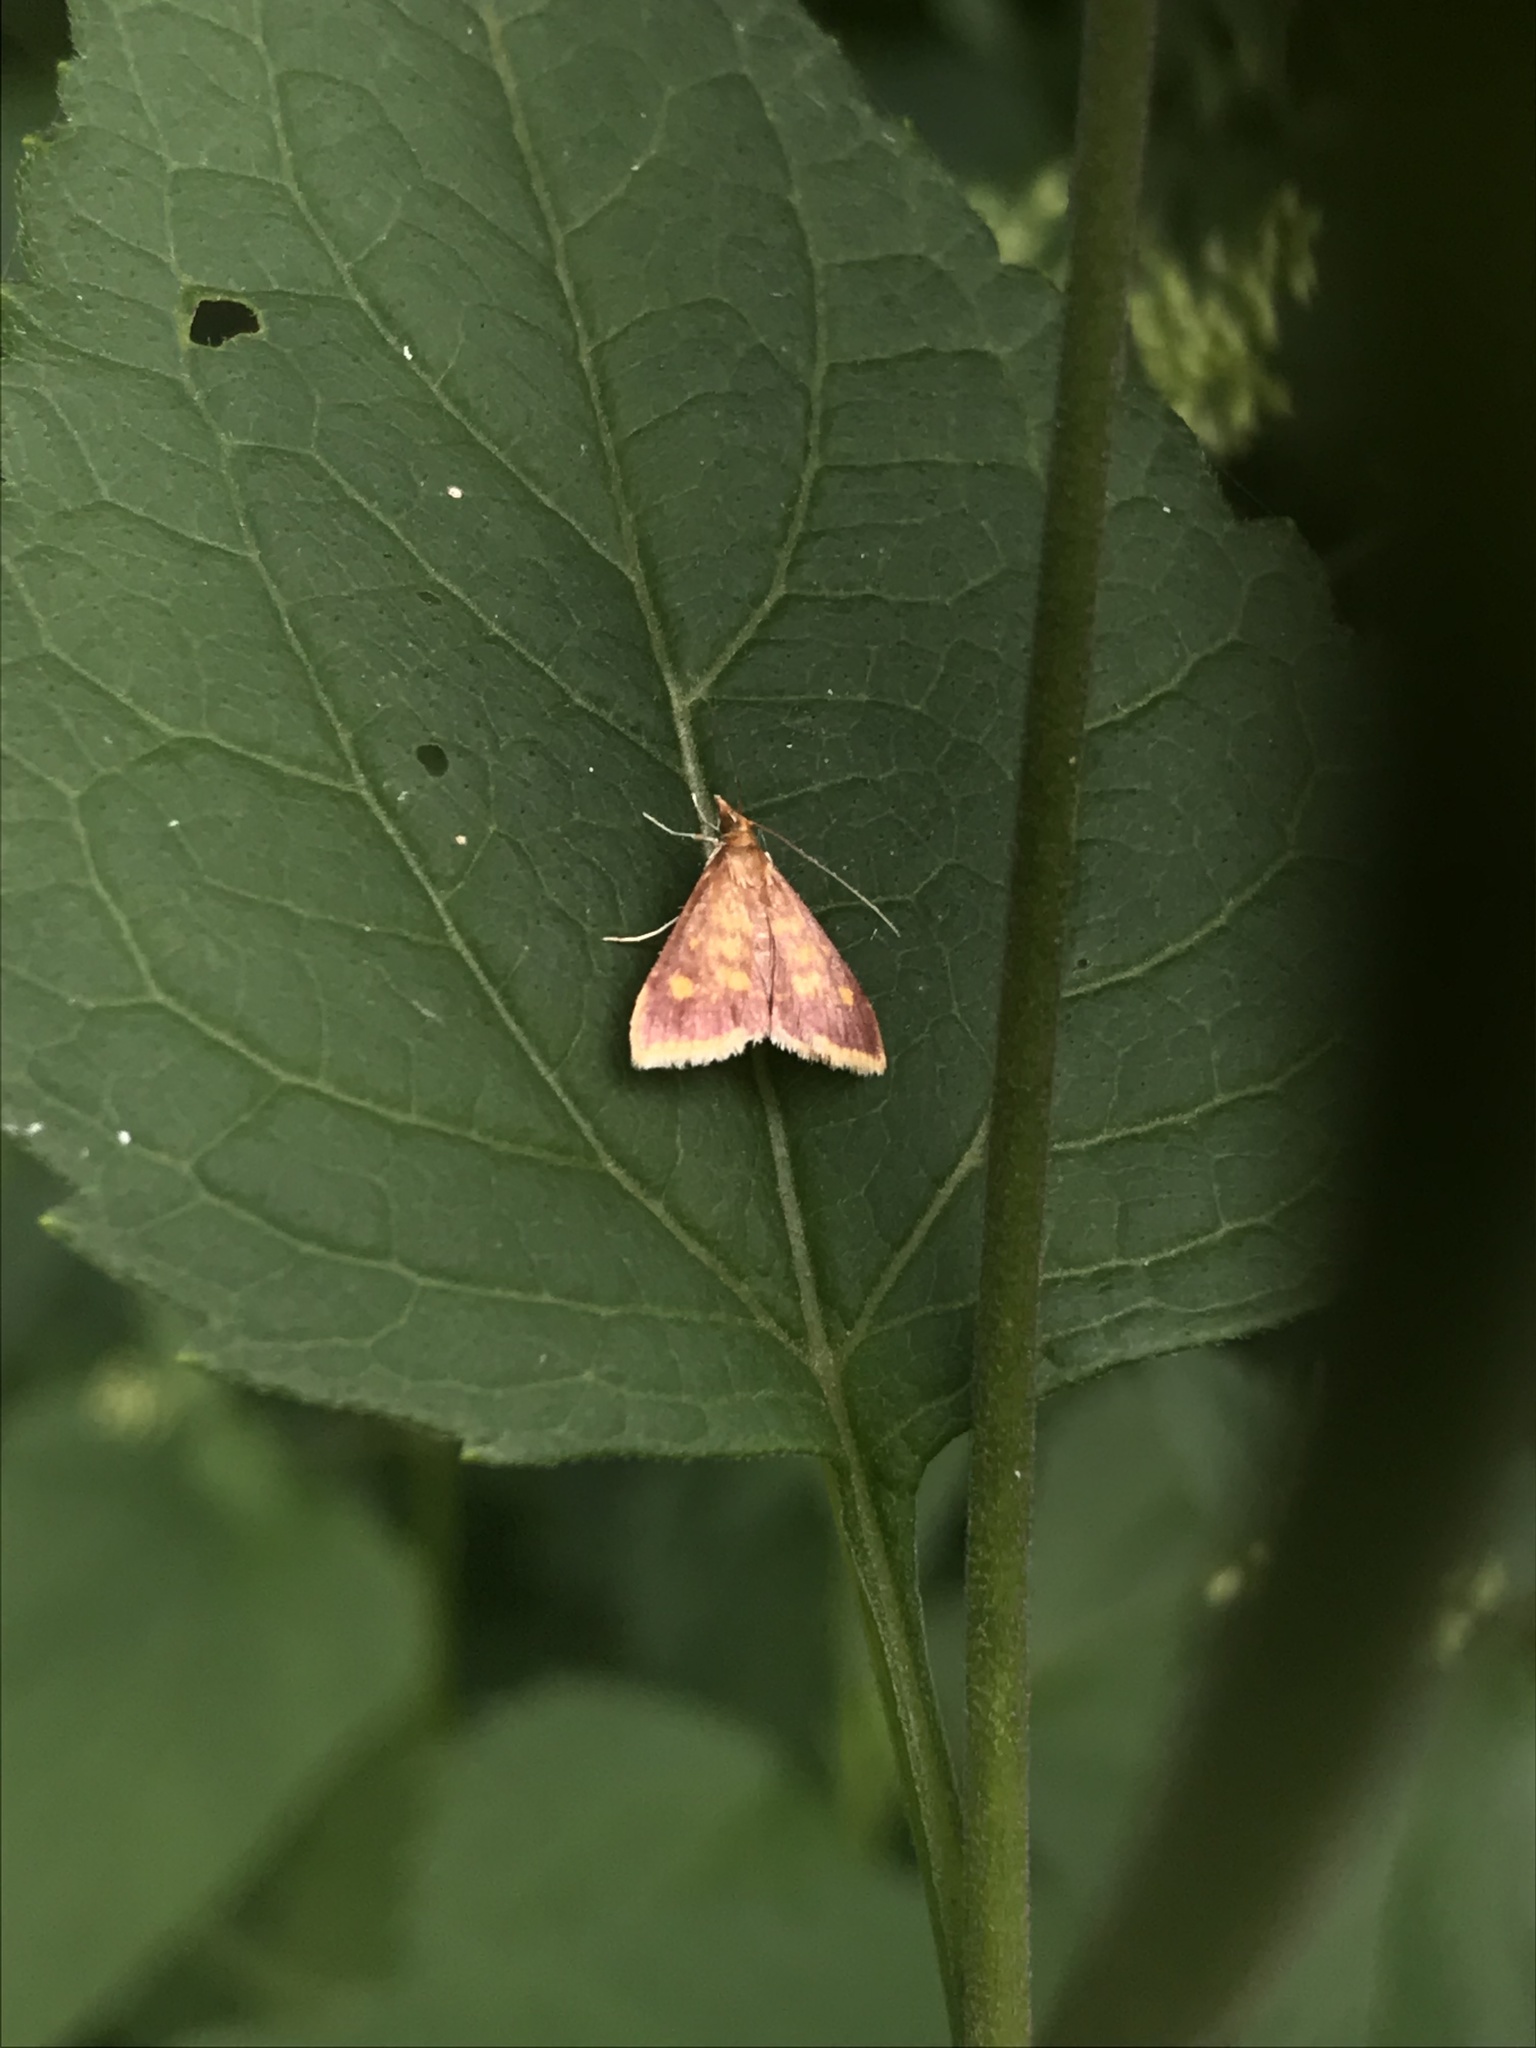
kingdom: Animalia
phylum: Arthropoda
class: Insecta
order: Lepidoptera
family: Crambidae
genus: Pyrausta
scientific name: Pyrausta acrionalis
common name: Mint-loving pyrausta moth
